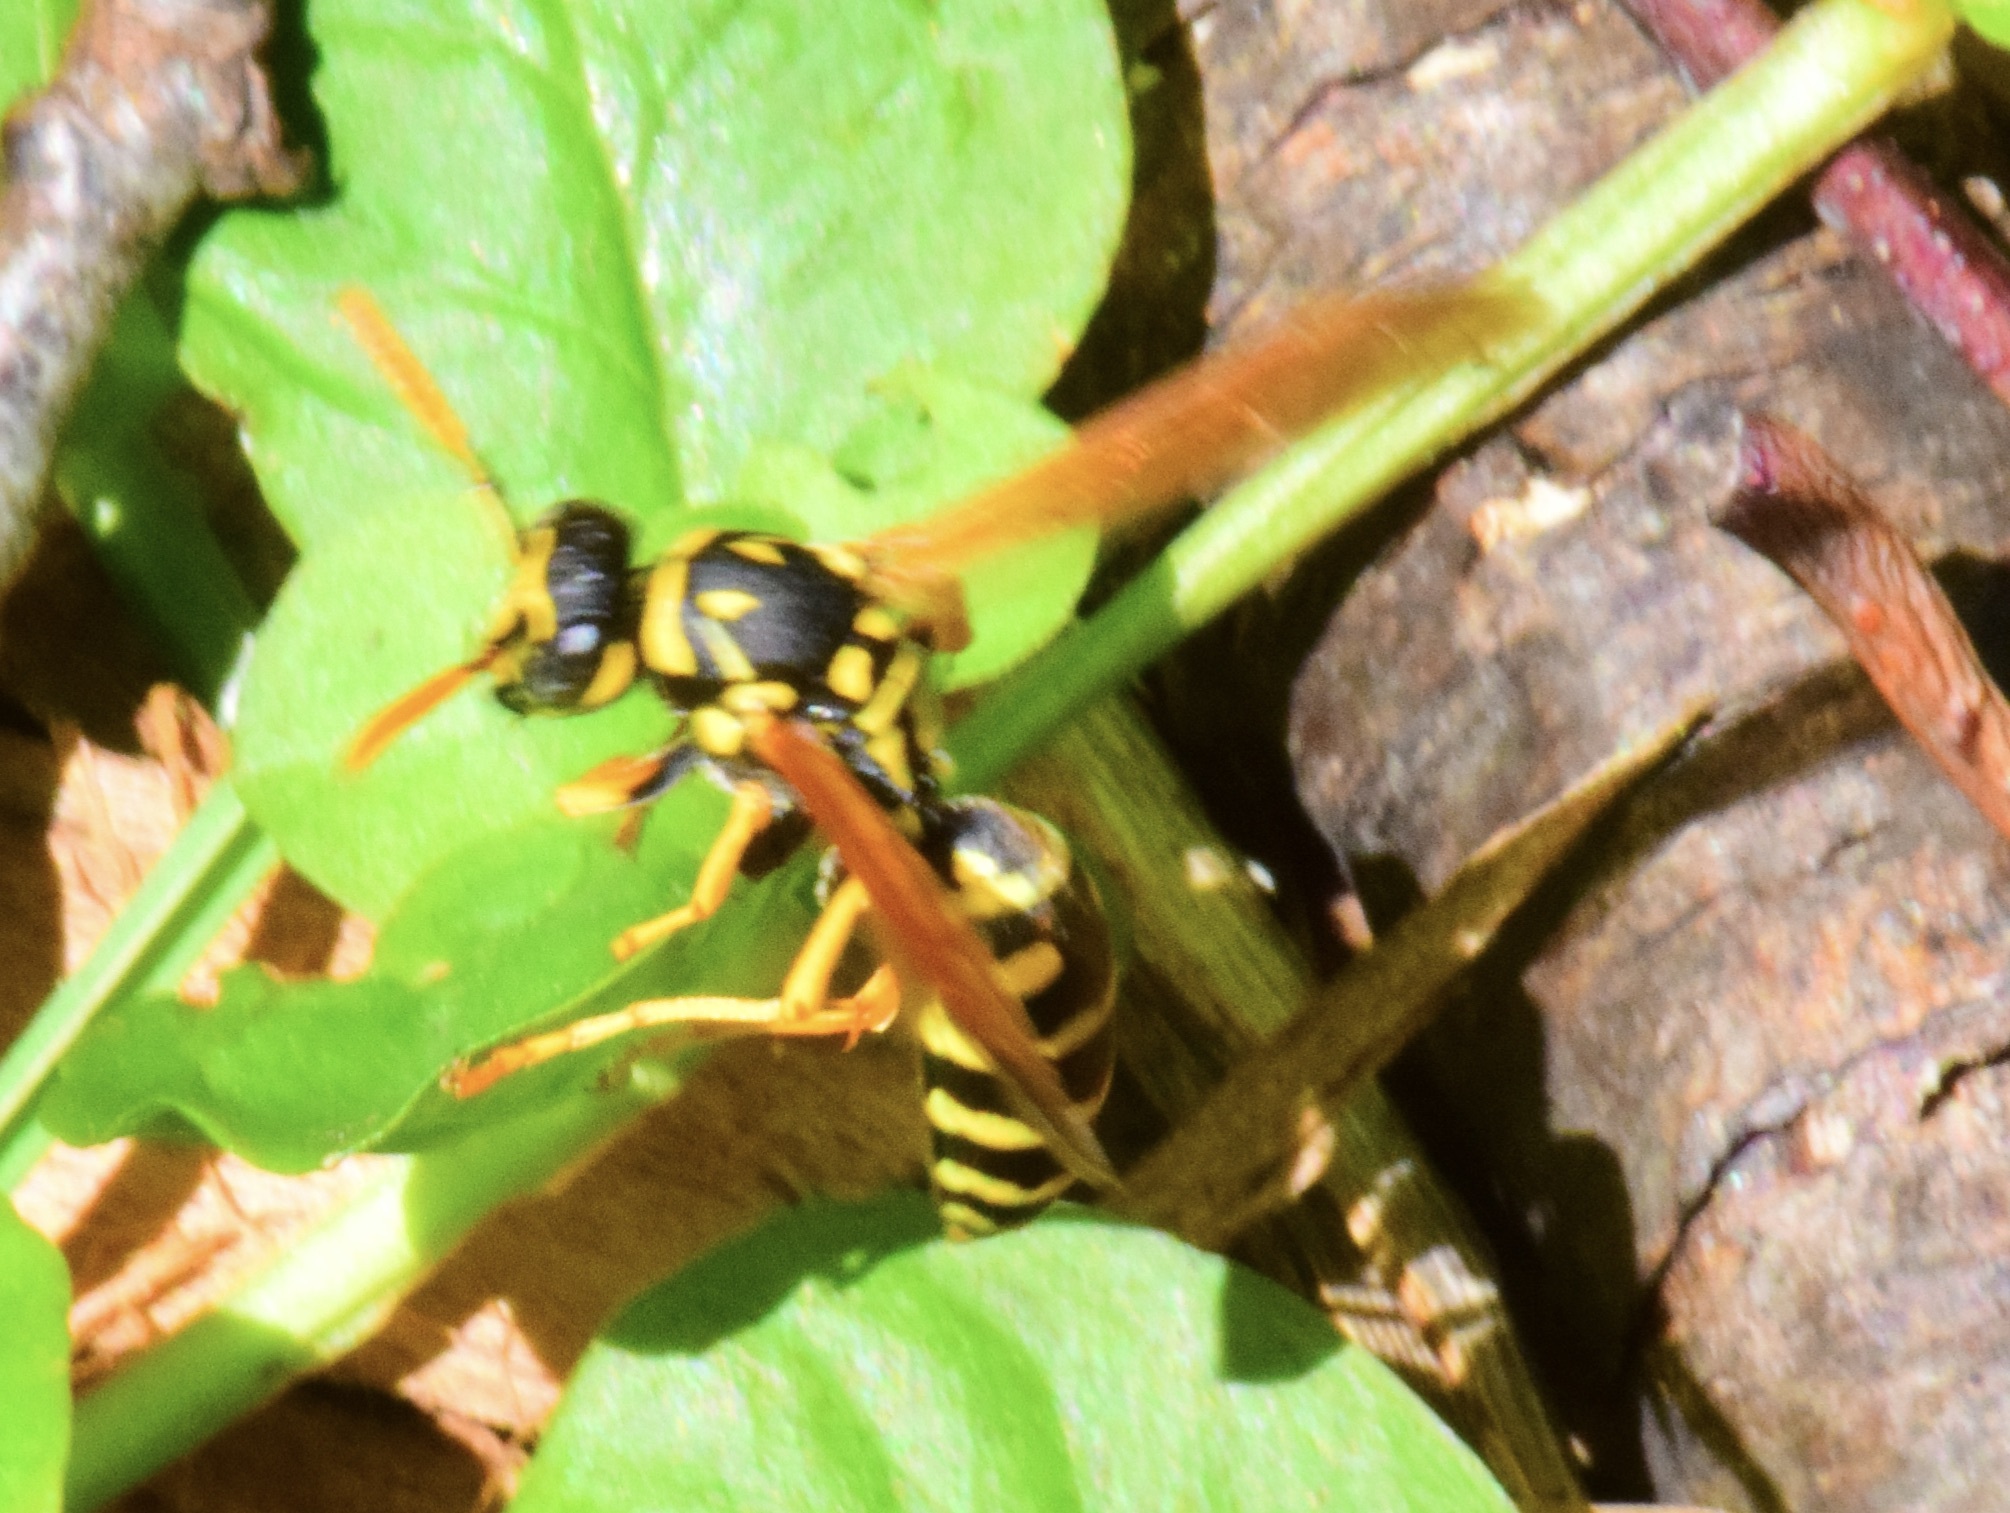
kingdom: Animalia
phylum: Arthropoda
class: Insecta
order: Hymenoptera
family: Eumenidae
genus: Polistes
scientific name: Polistes dominula
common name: Paper wasp
